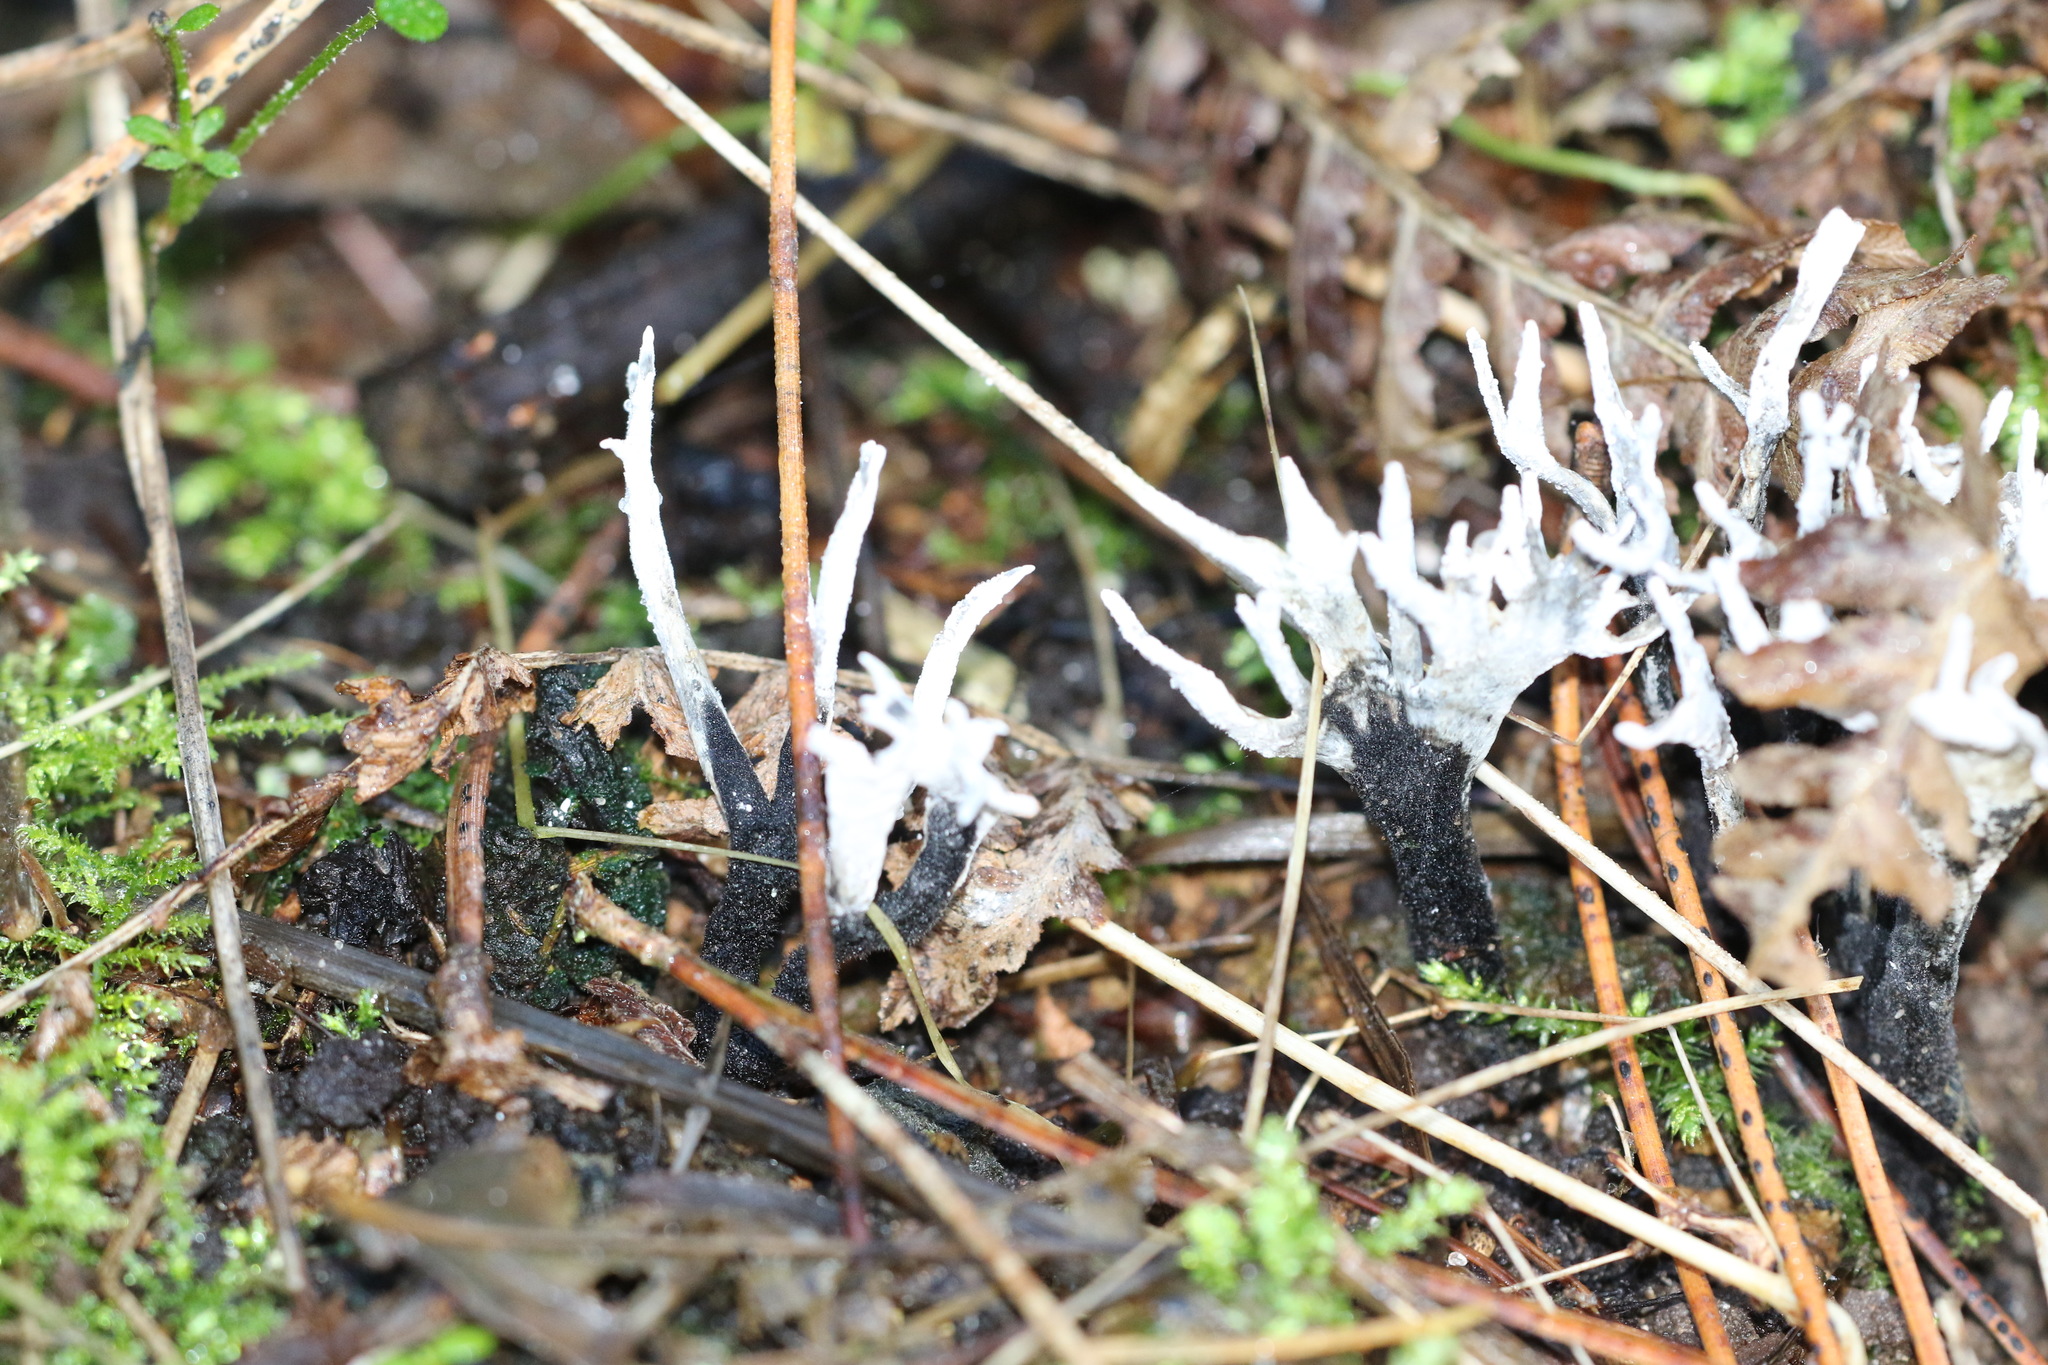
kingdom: Fungi
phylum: Ascomycota
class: Sordariomycetes
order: Xylariales
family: Xylariaceae
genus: Xylaria
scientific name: Xylaria hypoxylon
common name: Candle-snuff fungus
